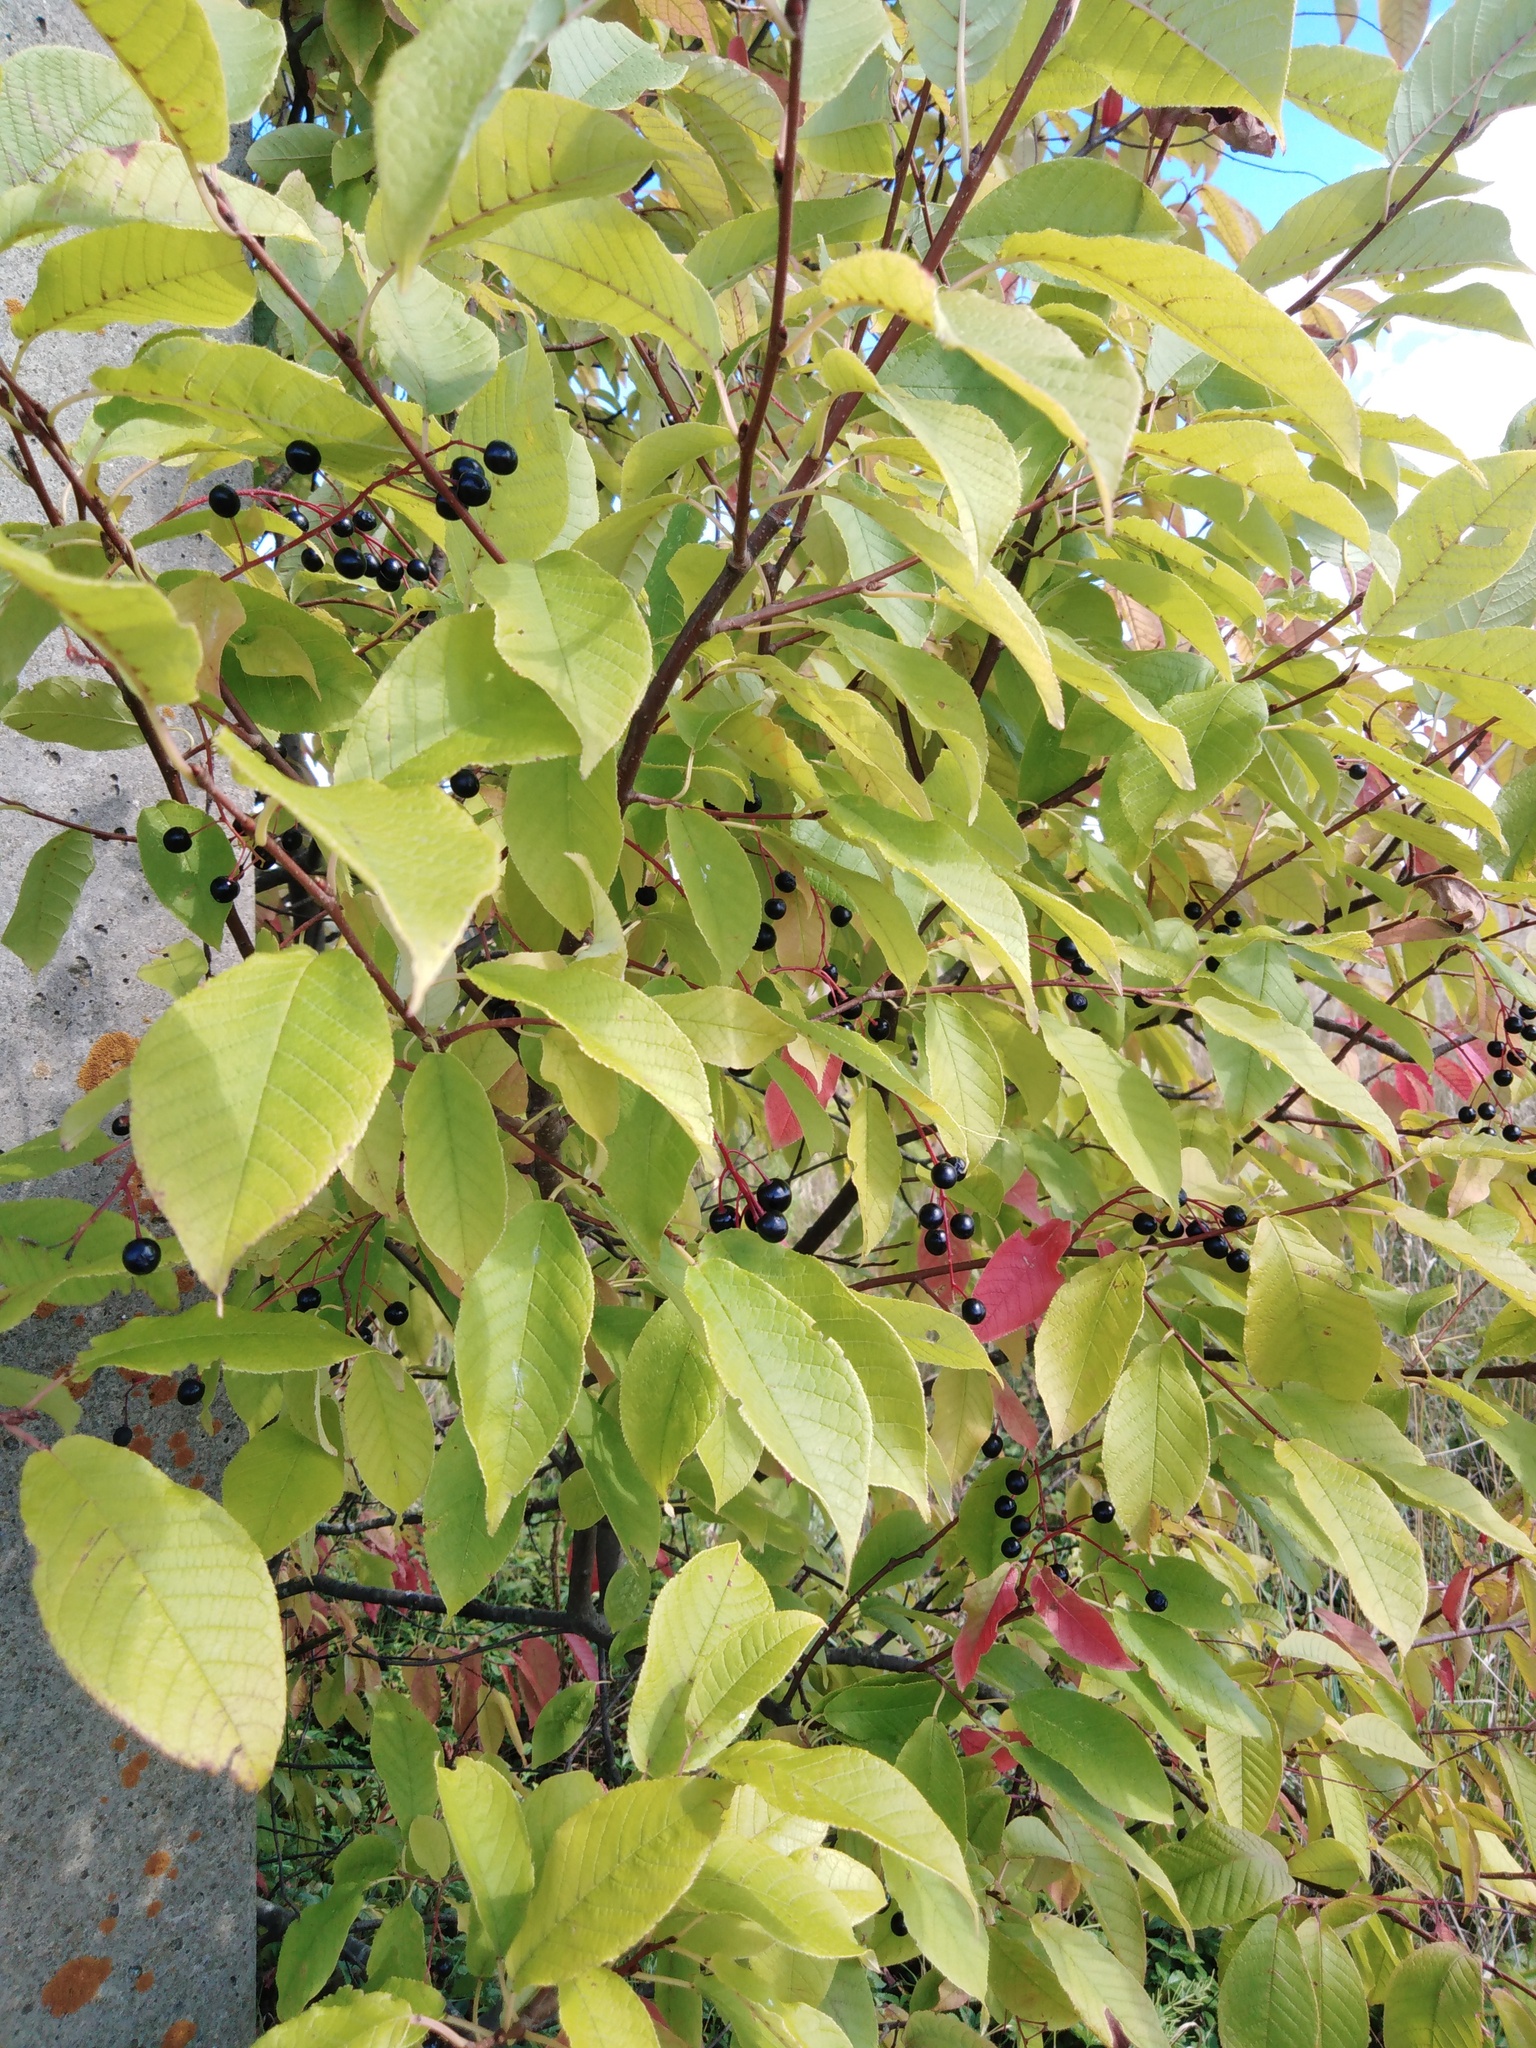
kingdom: Plantae
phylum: Tracheophyta
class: Magnoliopsida
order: Rosales
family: Rosaceae
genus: Prunus
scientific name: Prunus padus
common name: Bird cherry
